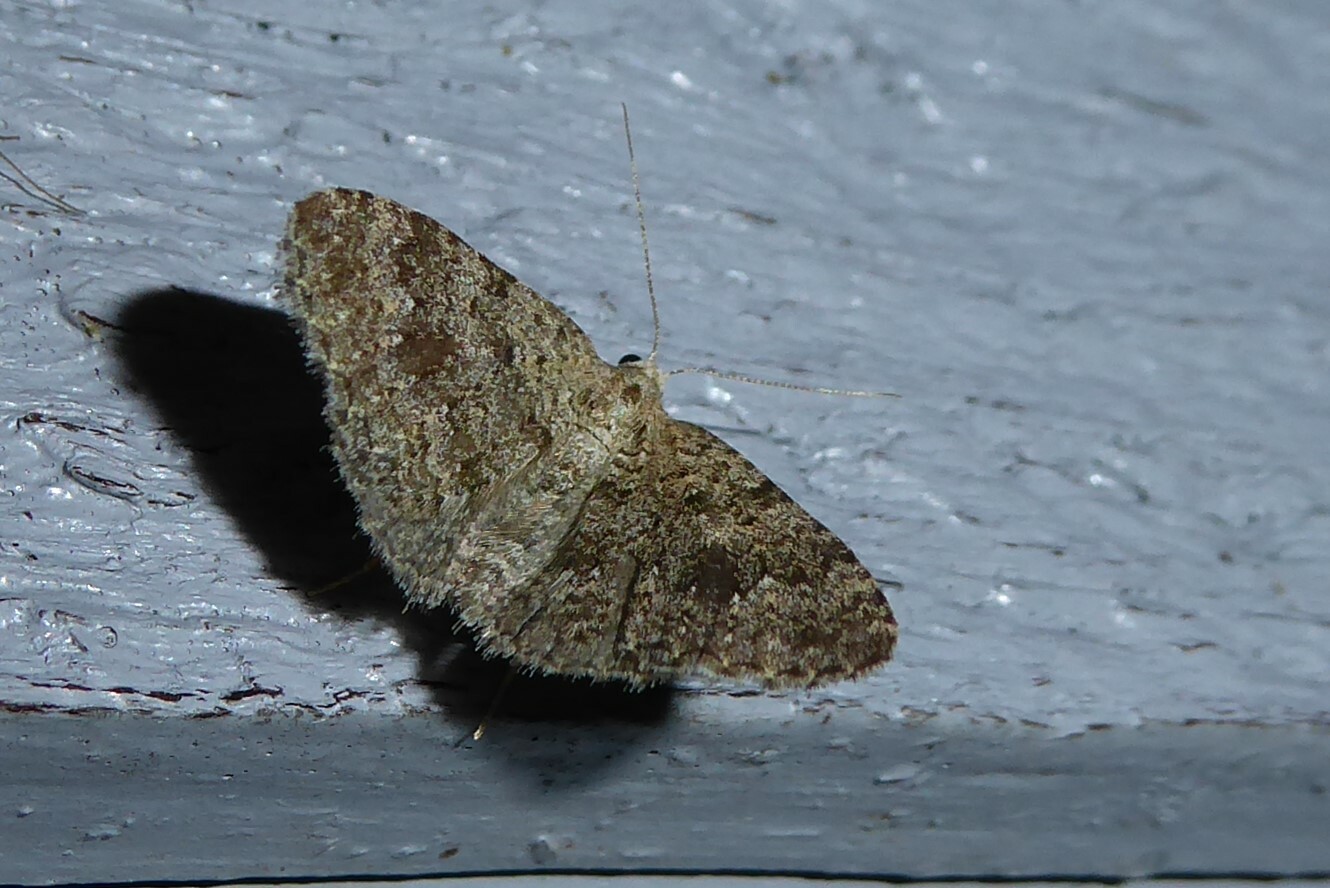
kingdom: Animalia
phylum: Arthropoda
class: Insecta
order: Lepidoptera
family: Geometridae
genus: Helastia
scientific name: Helastia corcularia
